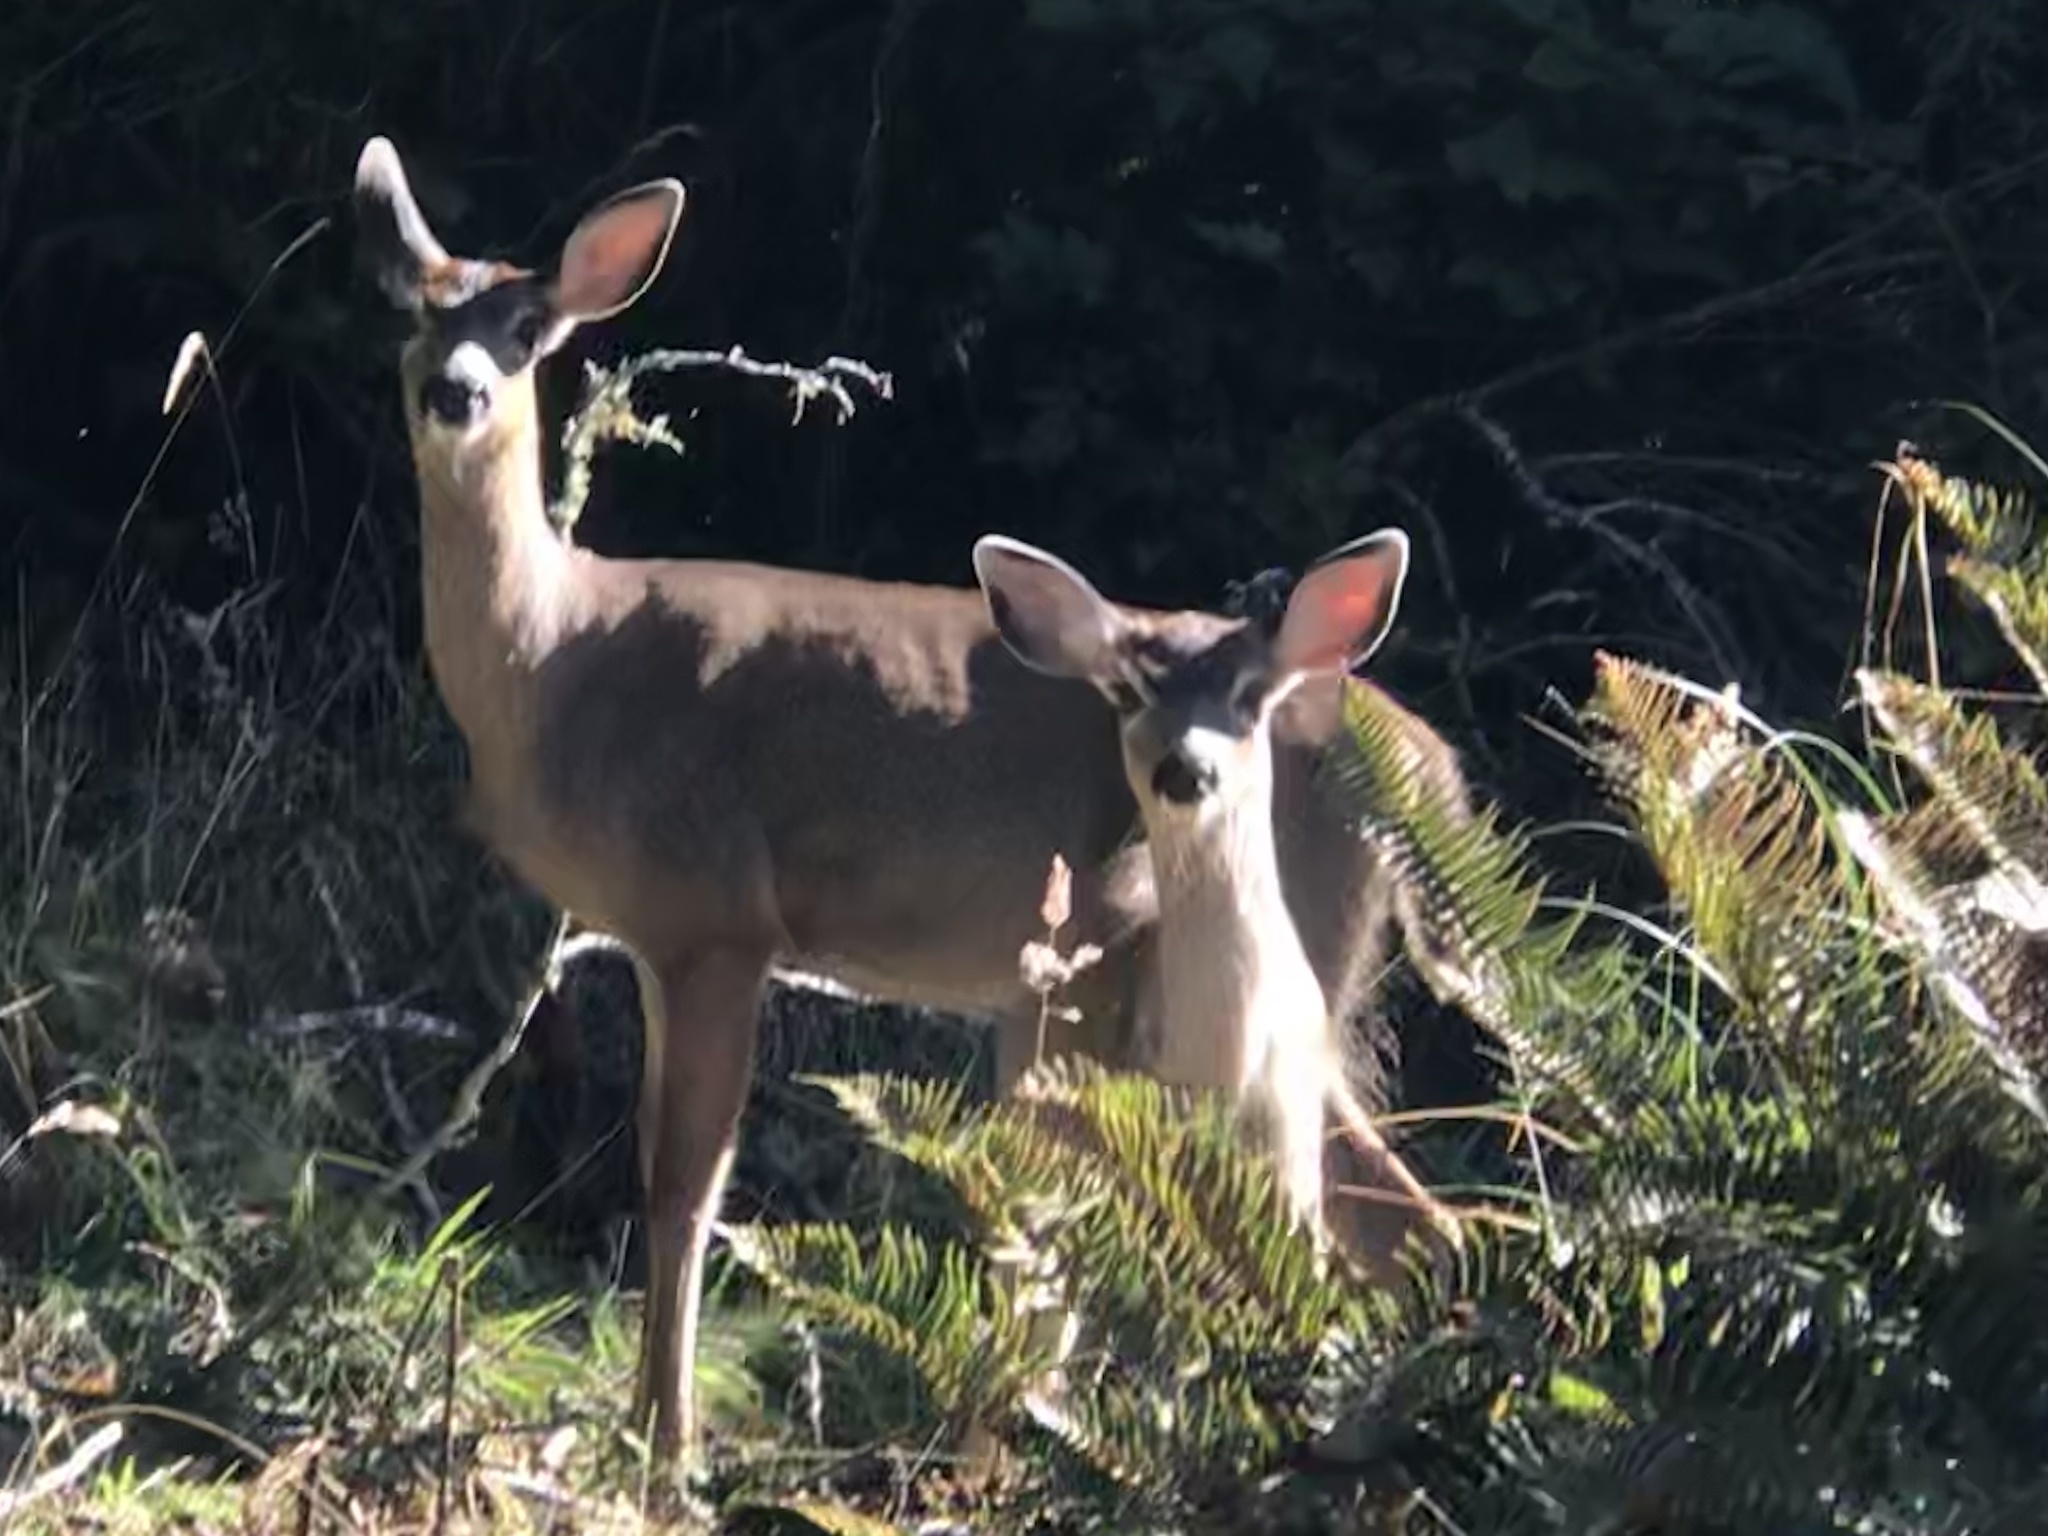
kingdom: Animalia
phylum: Chordata
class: Mammalia
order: Artiodactyla
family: Cervidae
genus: Odocoileus
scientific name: Odocoileus hemionus
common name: Mule deer
